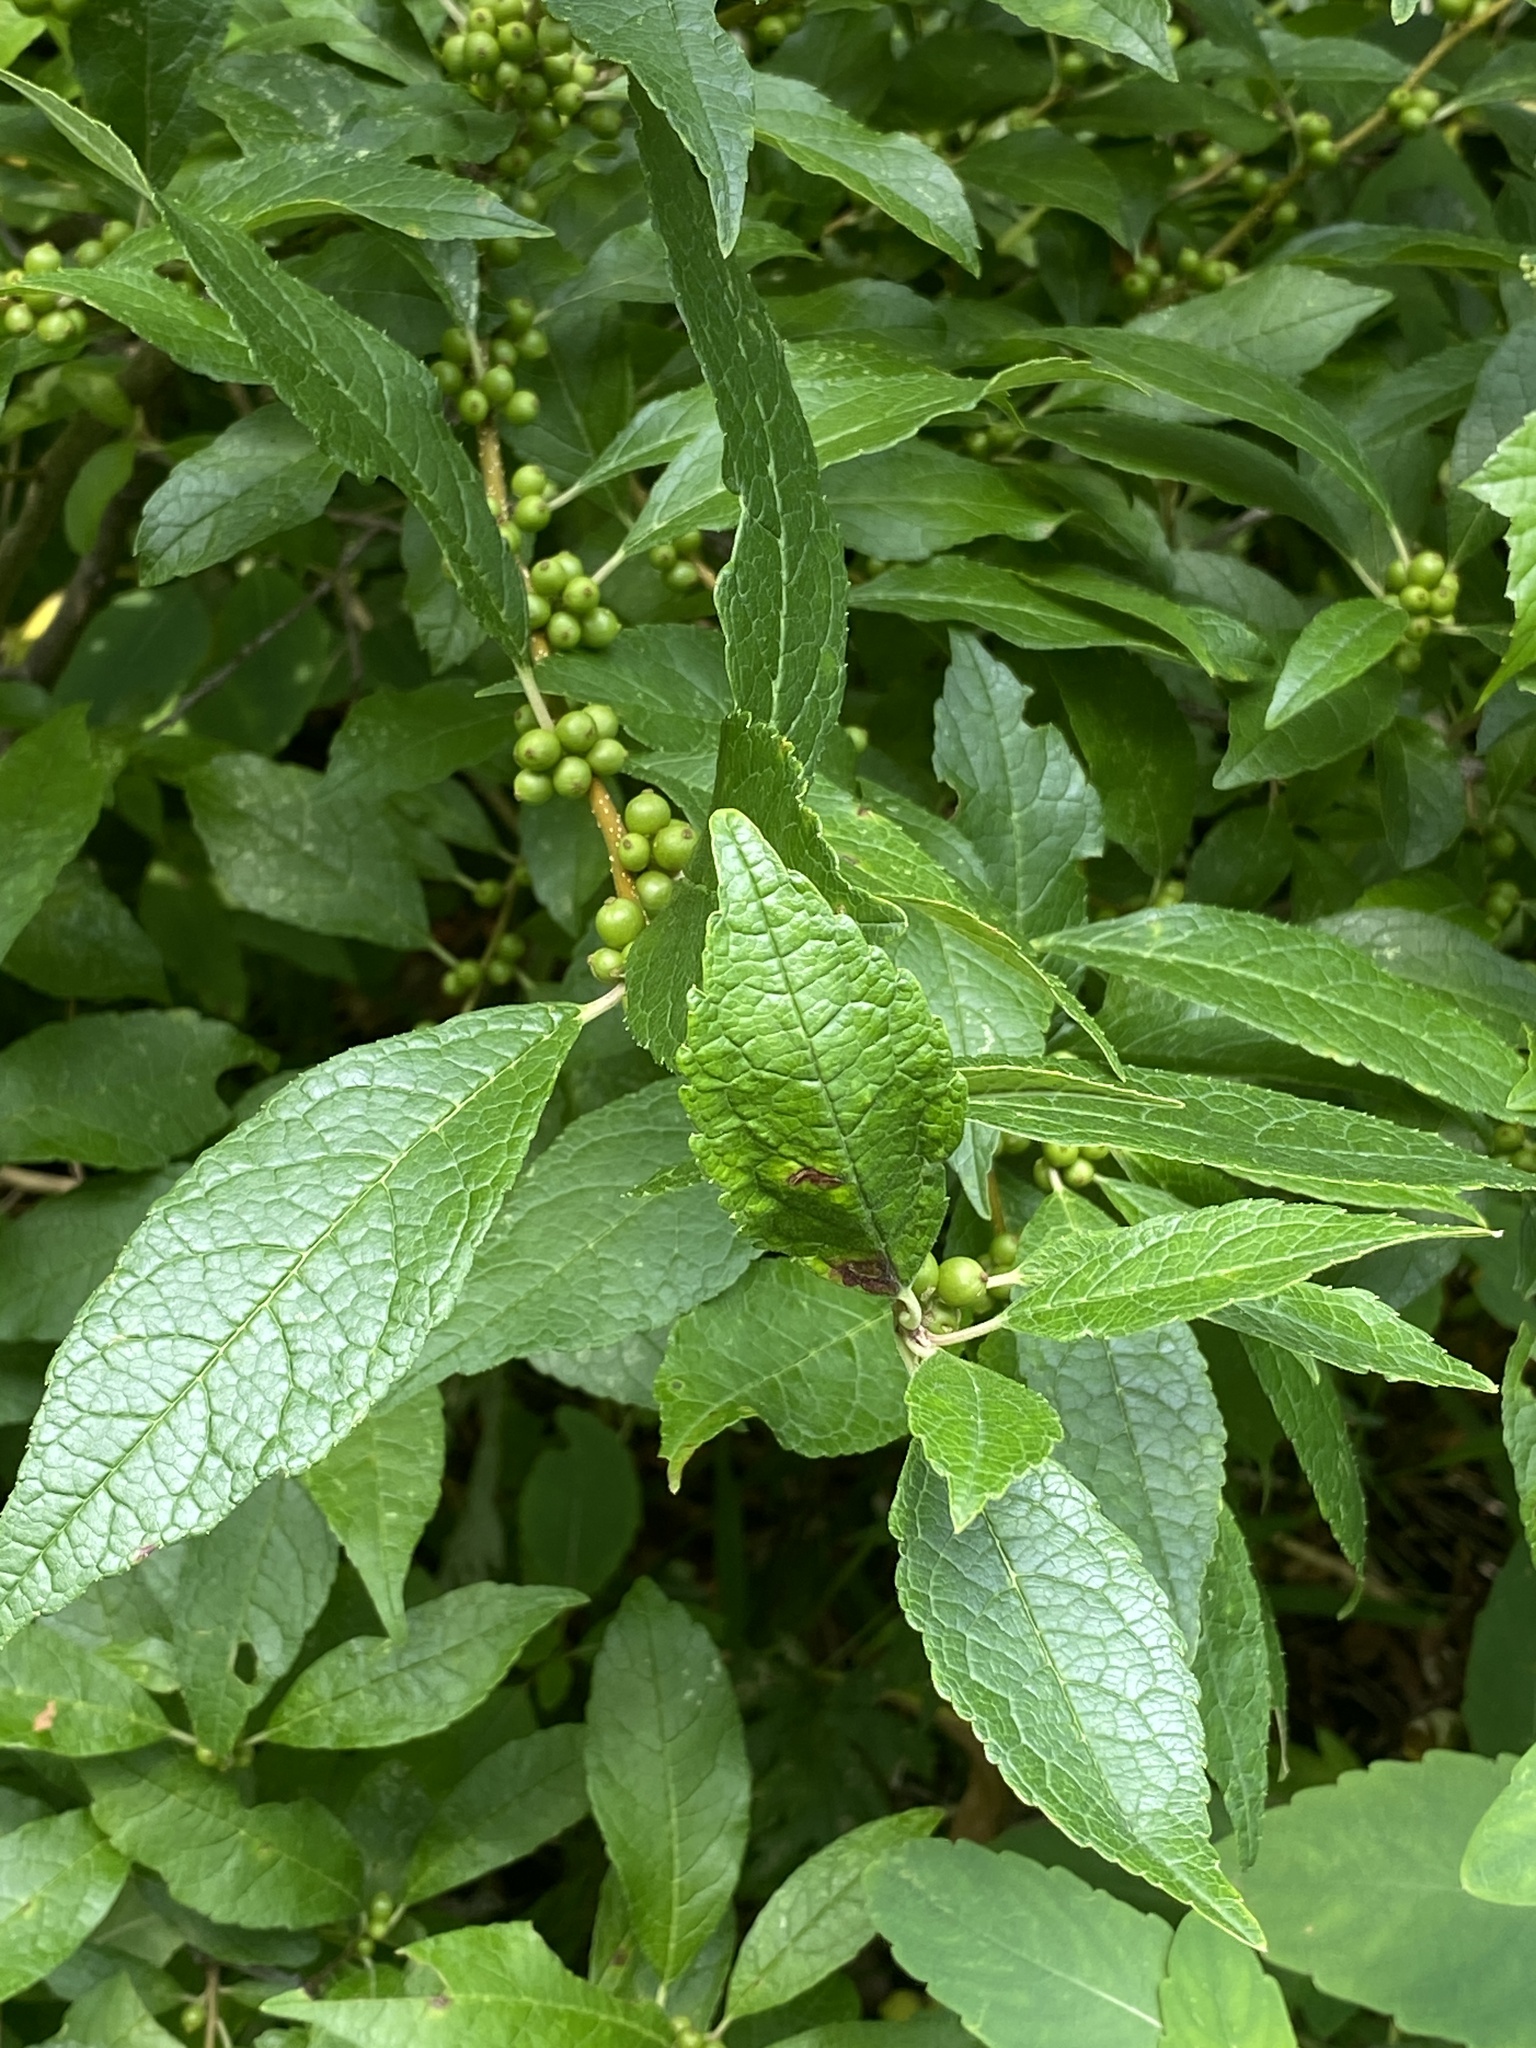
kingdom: Plantae
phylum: Tracheophyta
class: Magnoliopsida
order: Aquifoliales
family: Aquifoliaceae
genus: Ilex
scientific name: Ilex verticillata
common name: Virginia winterberry
